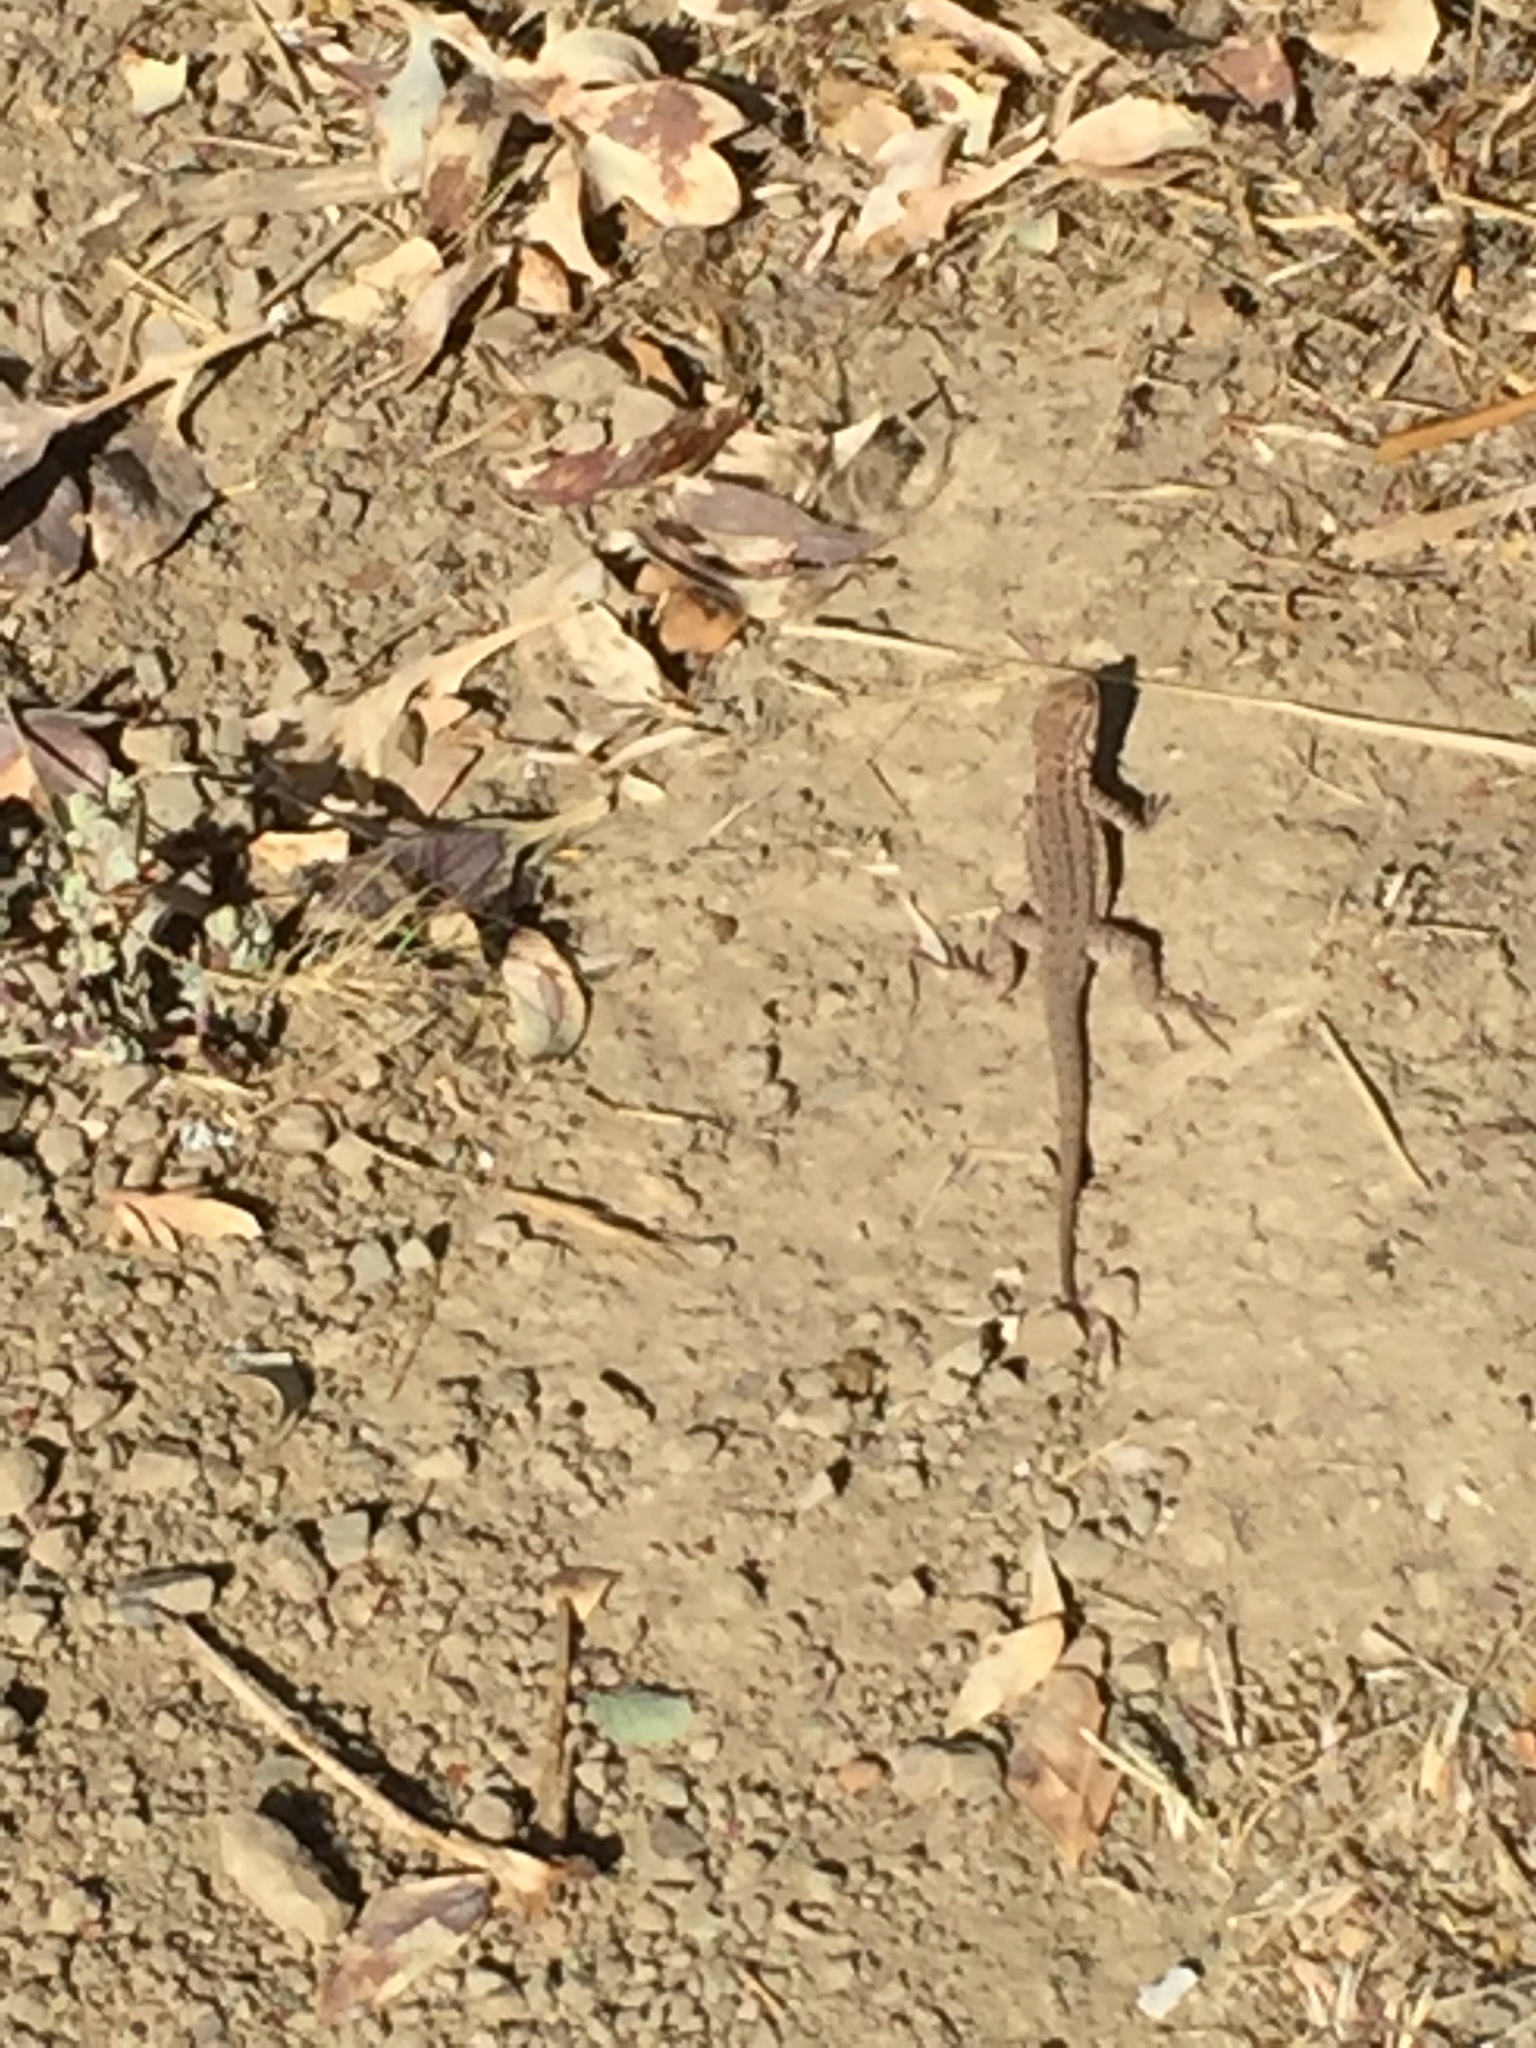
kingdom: Animalia
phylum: Chordata
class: Squamata
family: Phrynosomatidae
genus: Uta
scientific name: Uta stansburiana
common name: Side-blotched lizard
